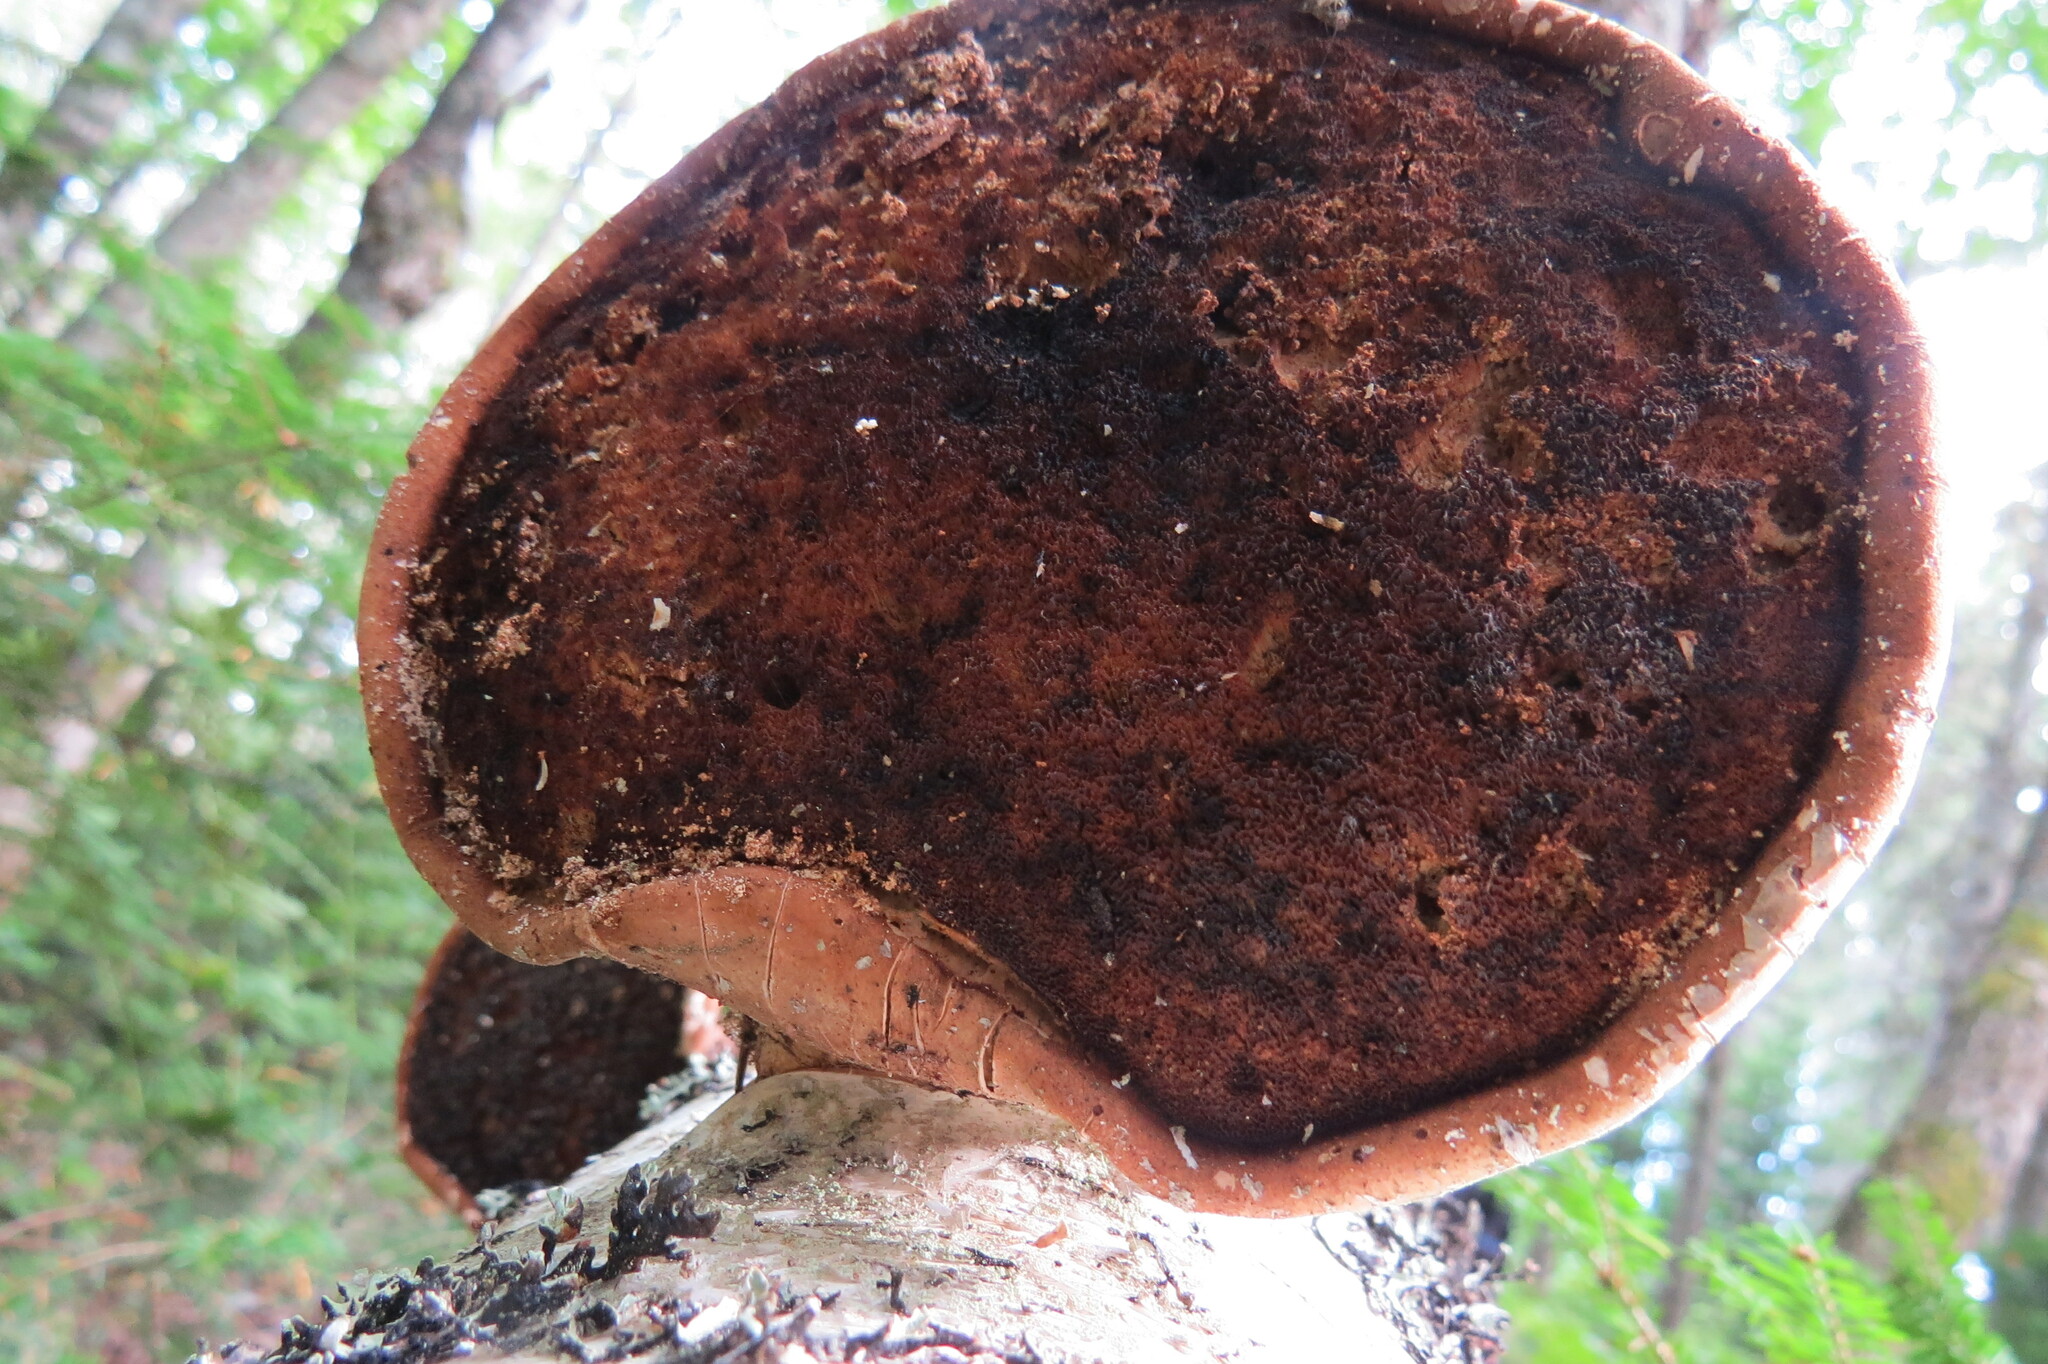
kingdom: Fungi
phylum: Basidiomycota
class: Agaricomycetes
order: Polyporales
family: Fomitopsidaceae
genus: Fomitopsis
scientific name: Fomitopsis betulina
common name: Birch polypore
